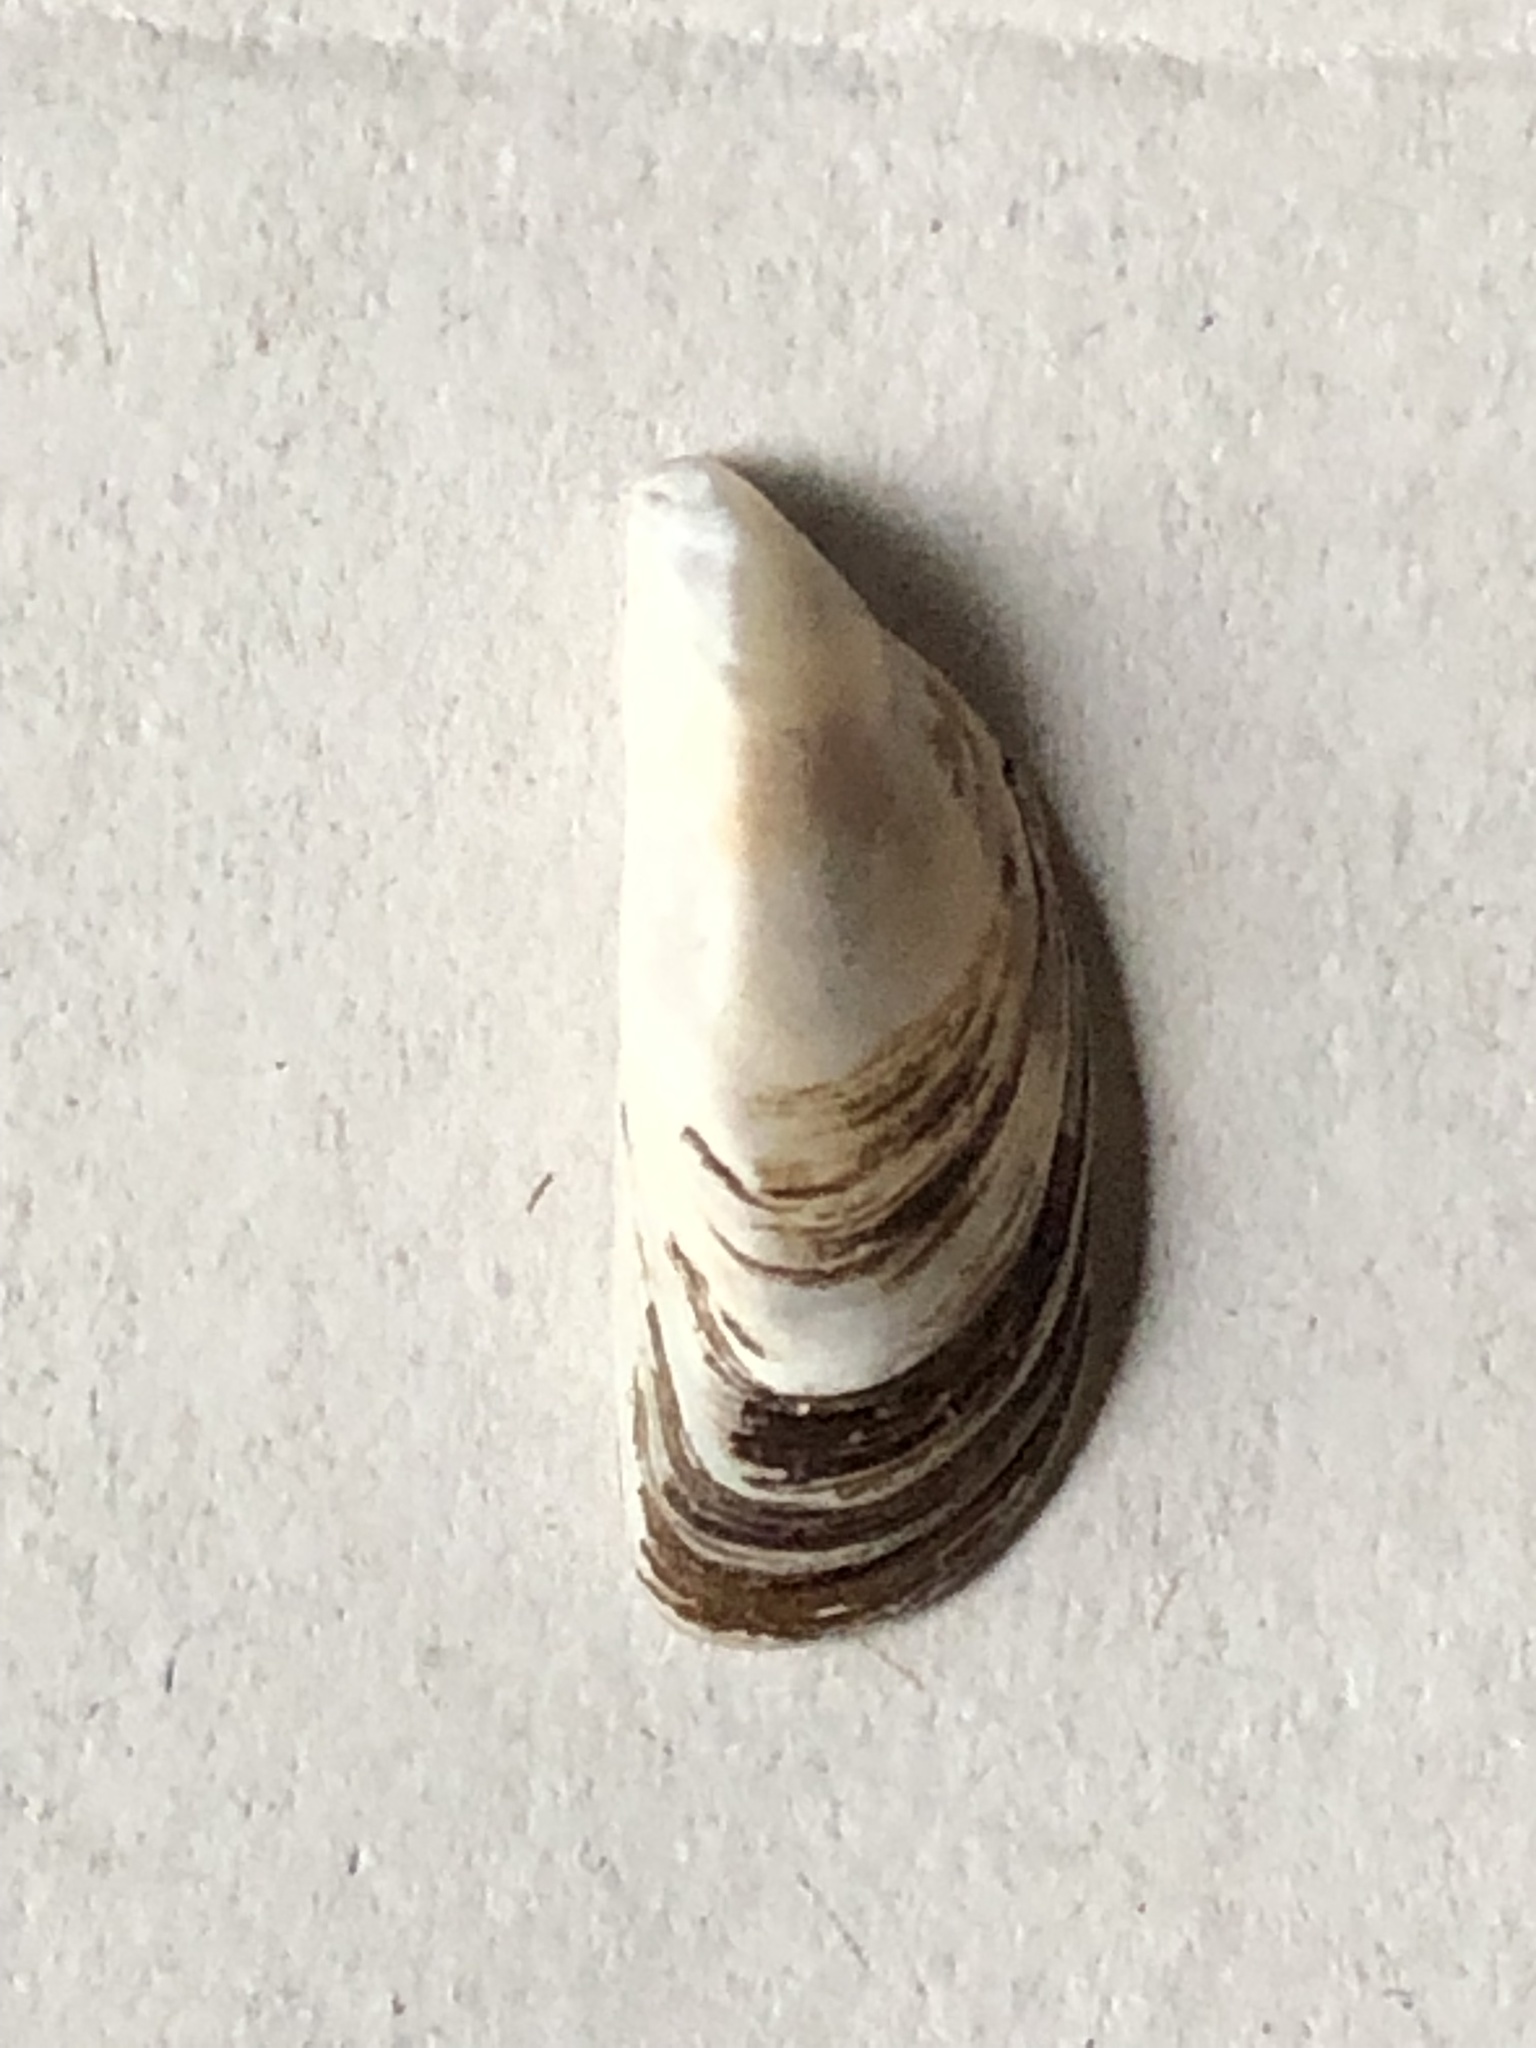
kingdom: Animalia
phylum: Mollusca
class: Bivalvia
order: Myida
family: Dreissenidae
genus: Dreissena
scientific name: Dreissena polymorpha
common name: Zebra mussel
